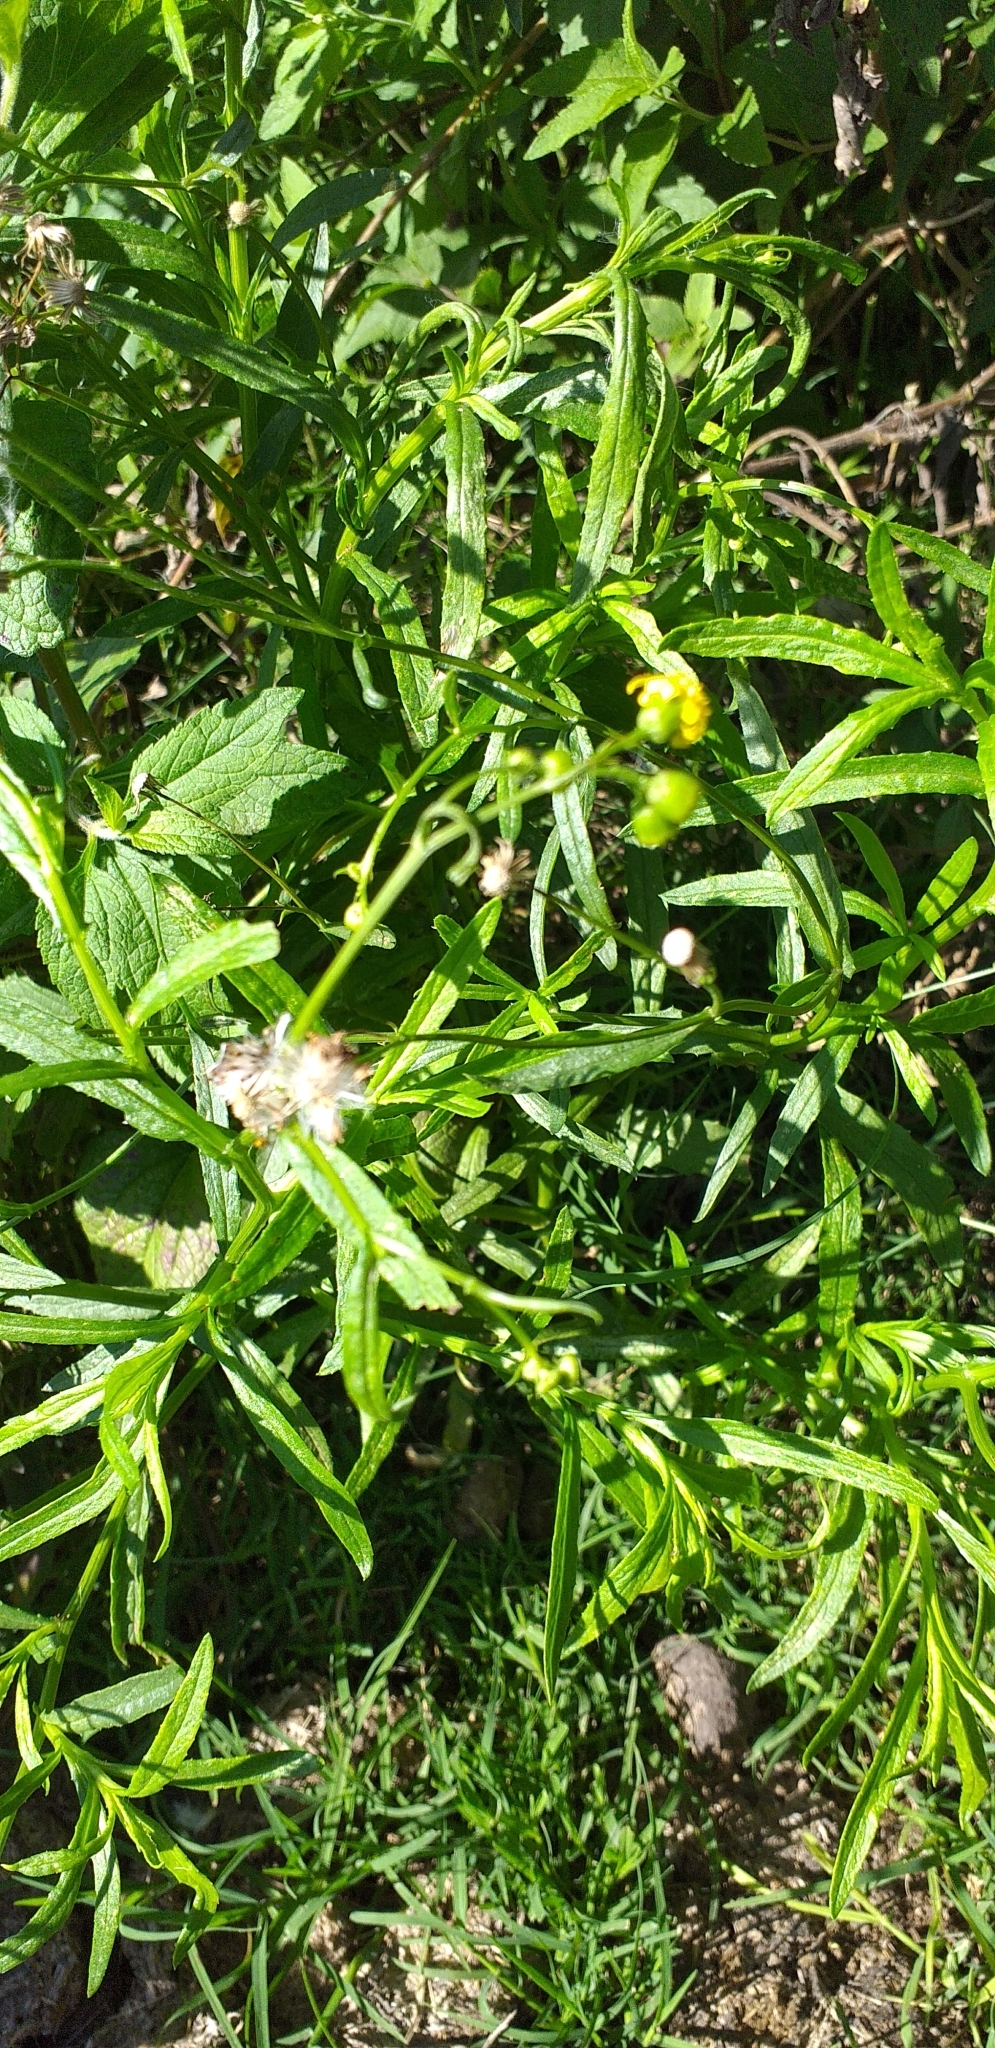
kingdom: Plantae
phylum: Tracheophyta
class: Magnoliopsida
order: Asterales
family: Asteraceae
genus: Senecio
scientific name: Senecio madagascariensis
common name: Madagascar ragwort
